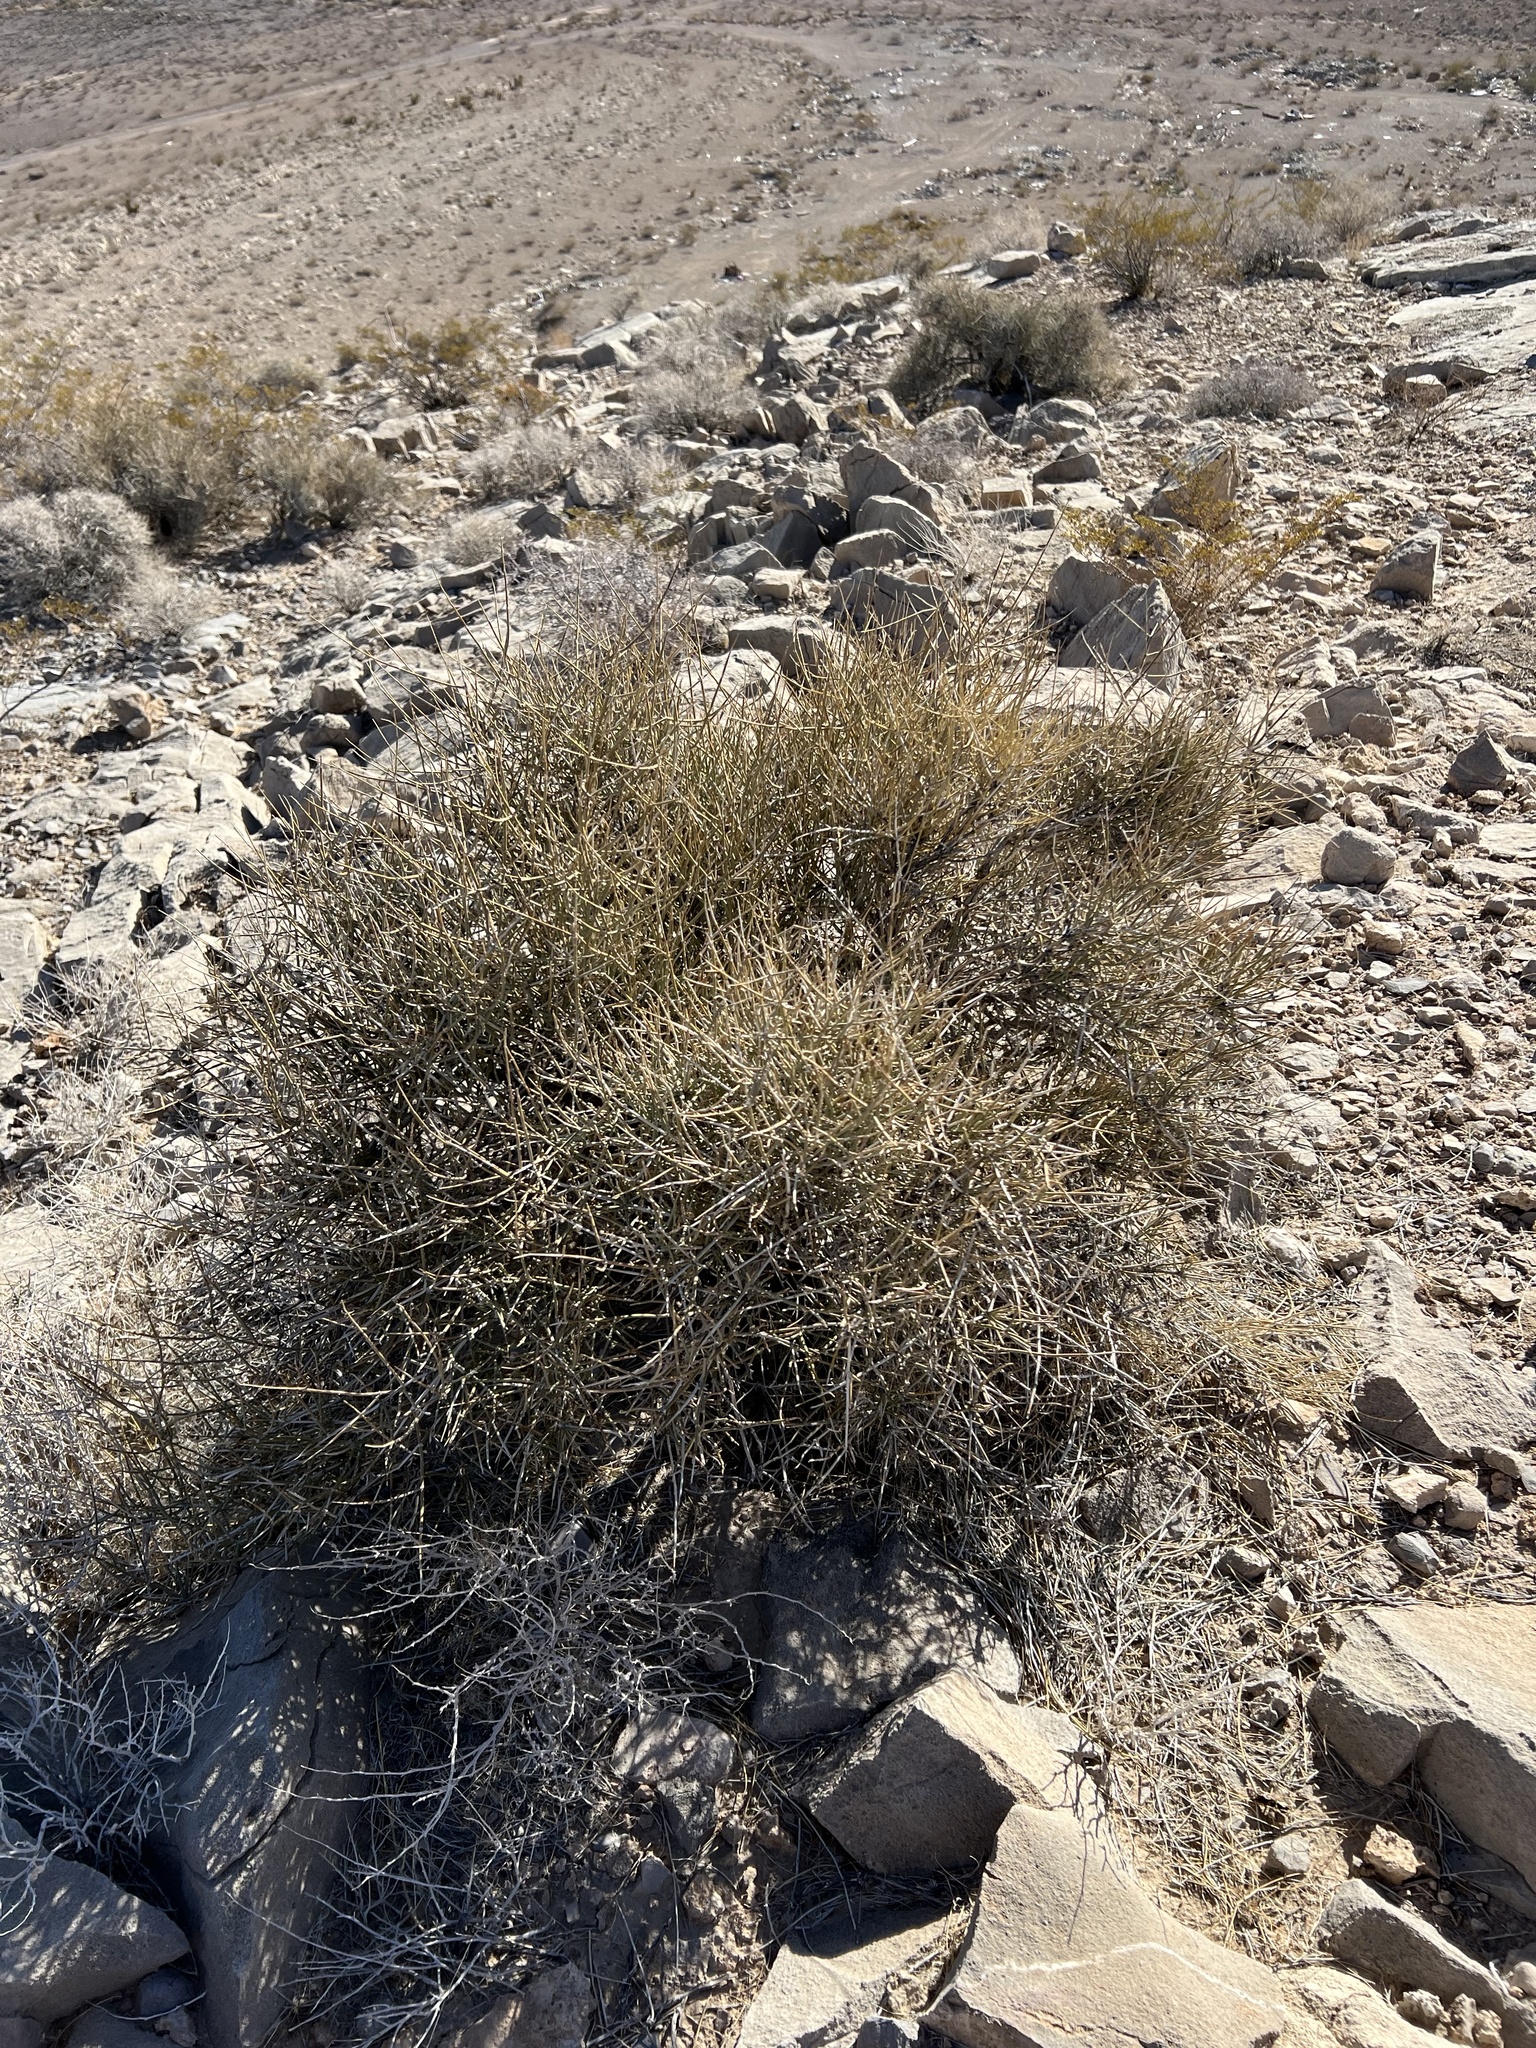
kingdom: Plantae
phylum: Tracheophyta
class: Gnetopsida
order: Ephedrales
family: Ephedraceae
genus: Ephedra
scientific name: Ephedra nevadensis
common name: Gray ephedra
